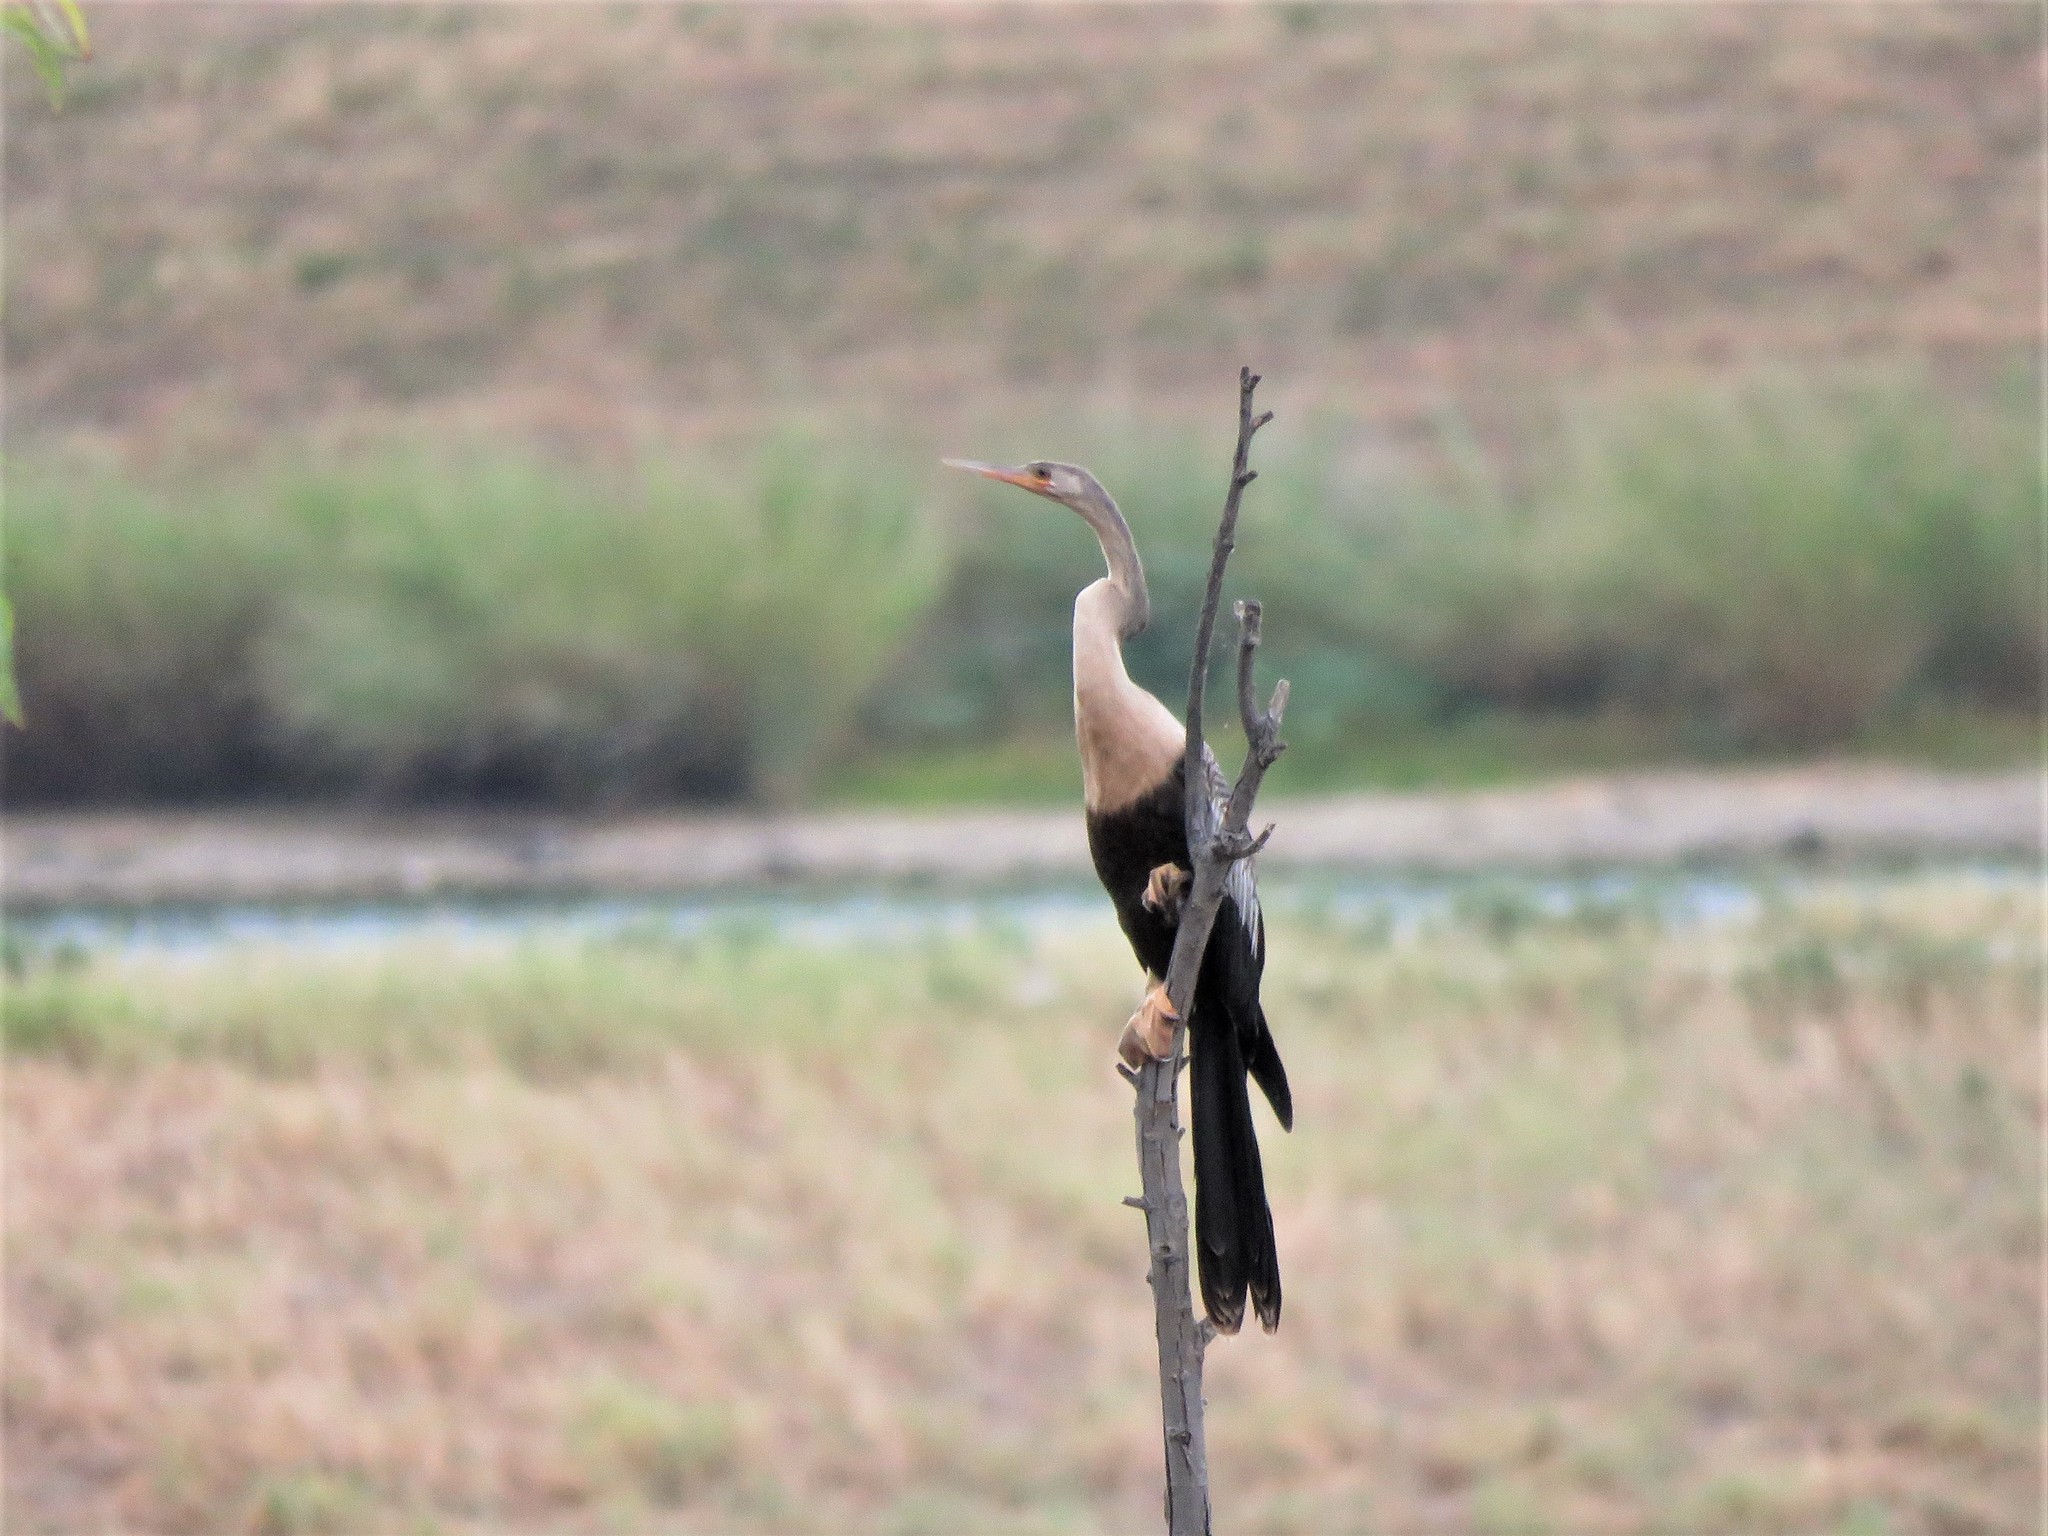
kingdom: Animalia
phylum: Chordata
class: Aves
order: Suliformes
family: Anhingidae
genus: Anhinga
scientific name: Anhinga anhinga
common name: Anhinga
